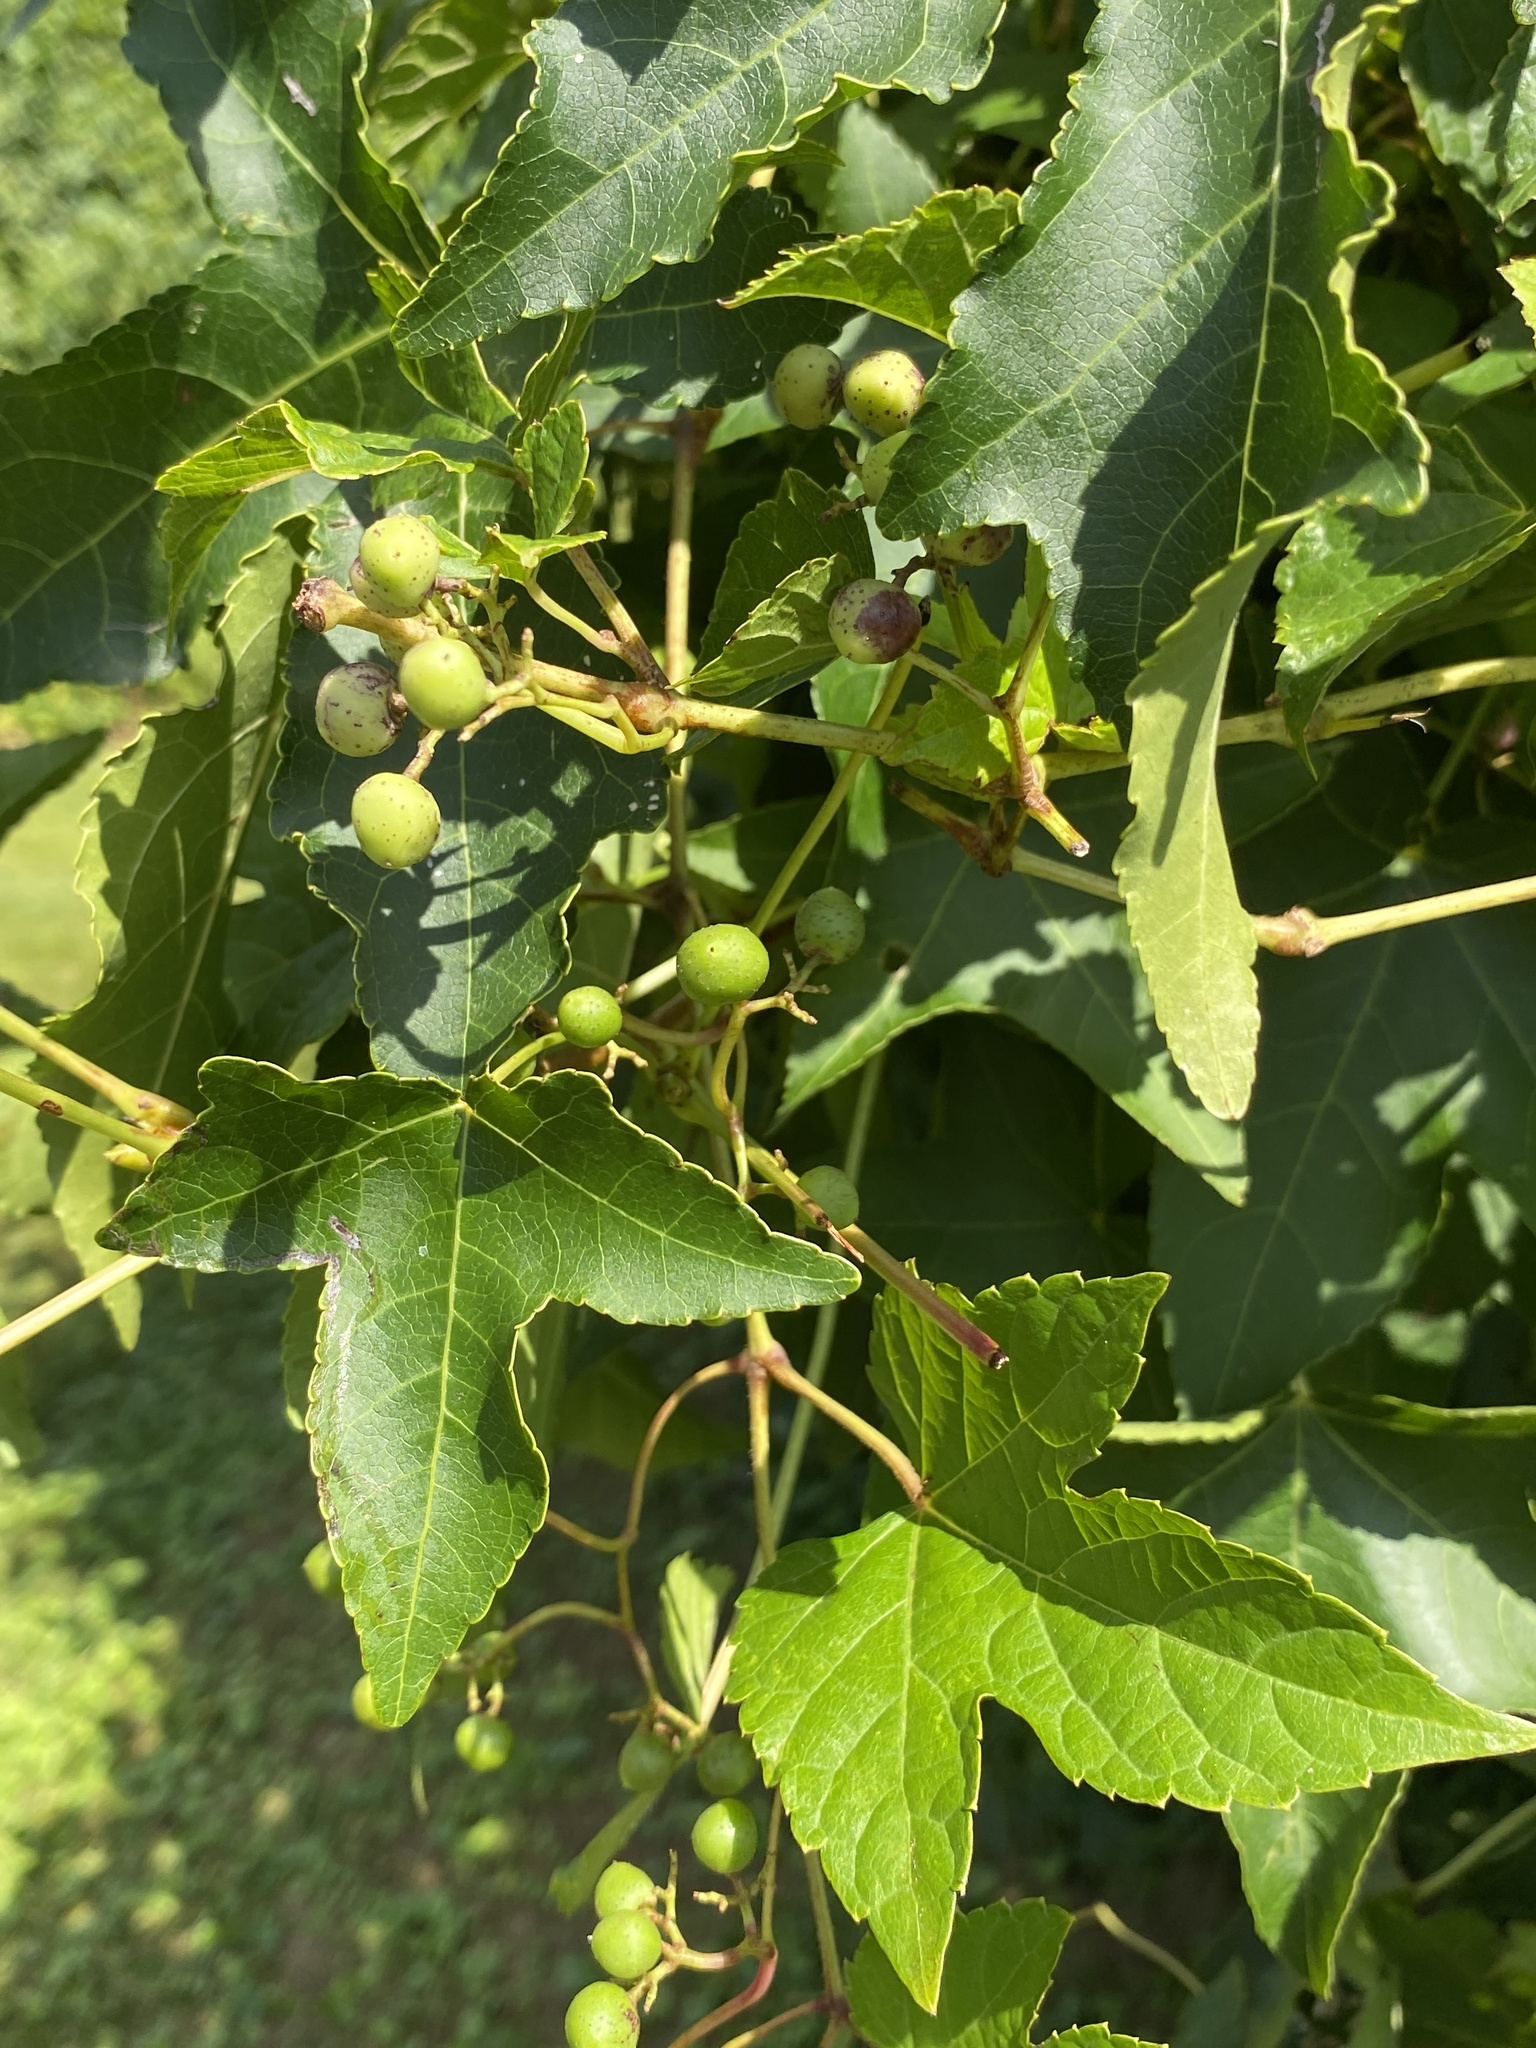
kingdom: Plantae
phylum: Tracheophyta
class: Magnoliopsida
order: Vitales
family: Vitaceae
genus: Ampelopsis
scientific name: Ampelopsis glandulosa
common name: Amur peppervine
